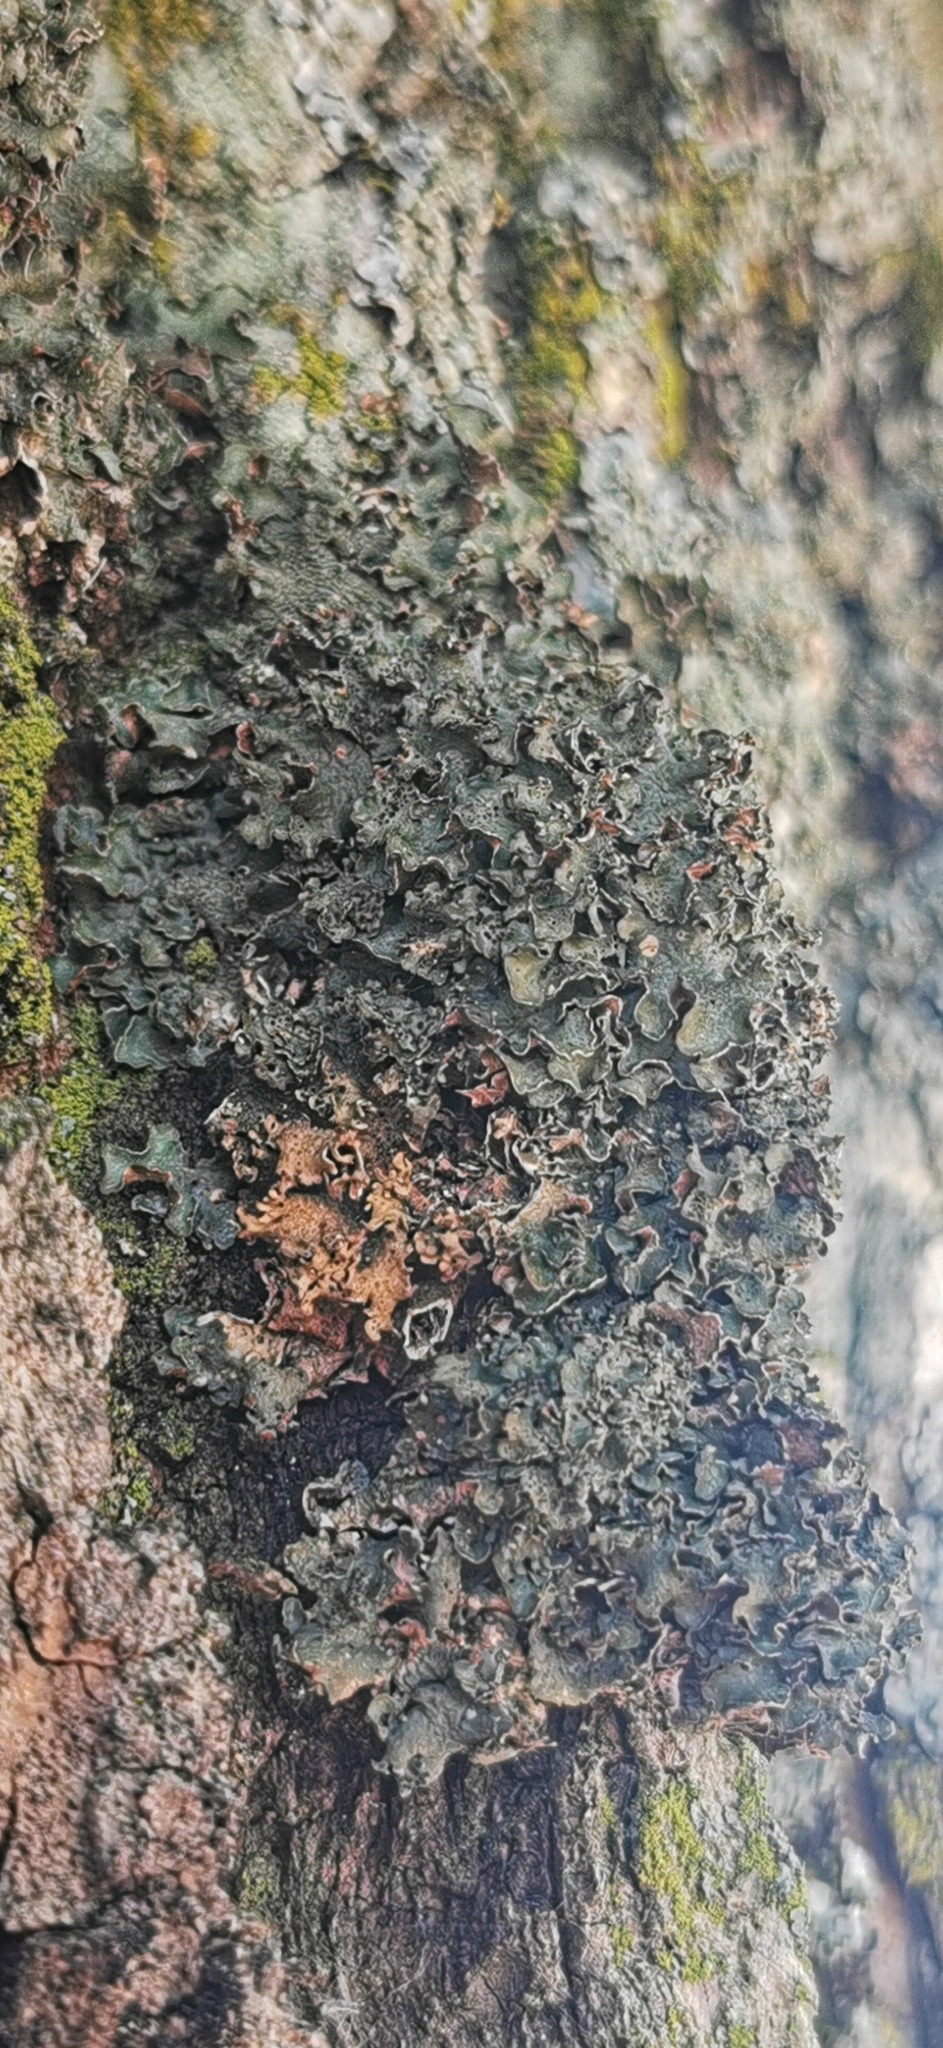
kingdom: Fungi
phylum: Ascomycota
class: Lecanoromycetes
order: Lecanorales
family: Parmeliaceae
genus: Pleurosticta
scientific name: Pleurosticta acetabulum
